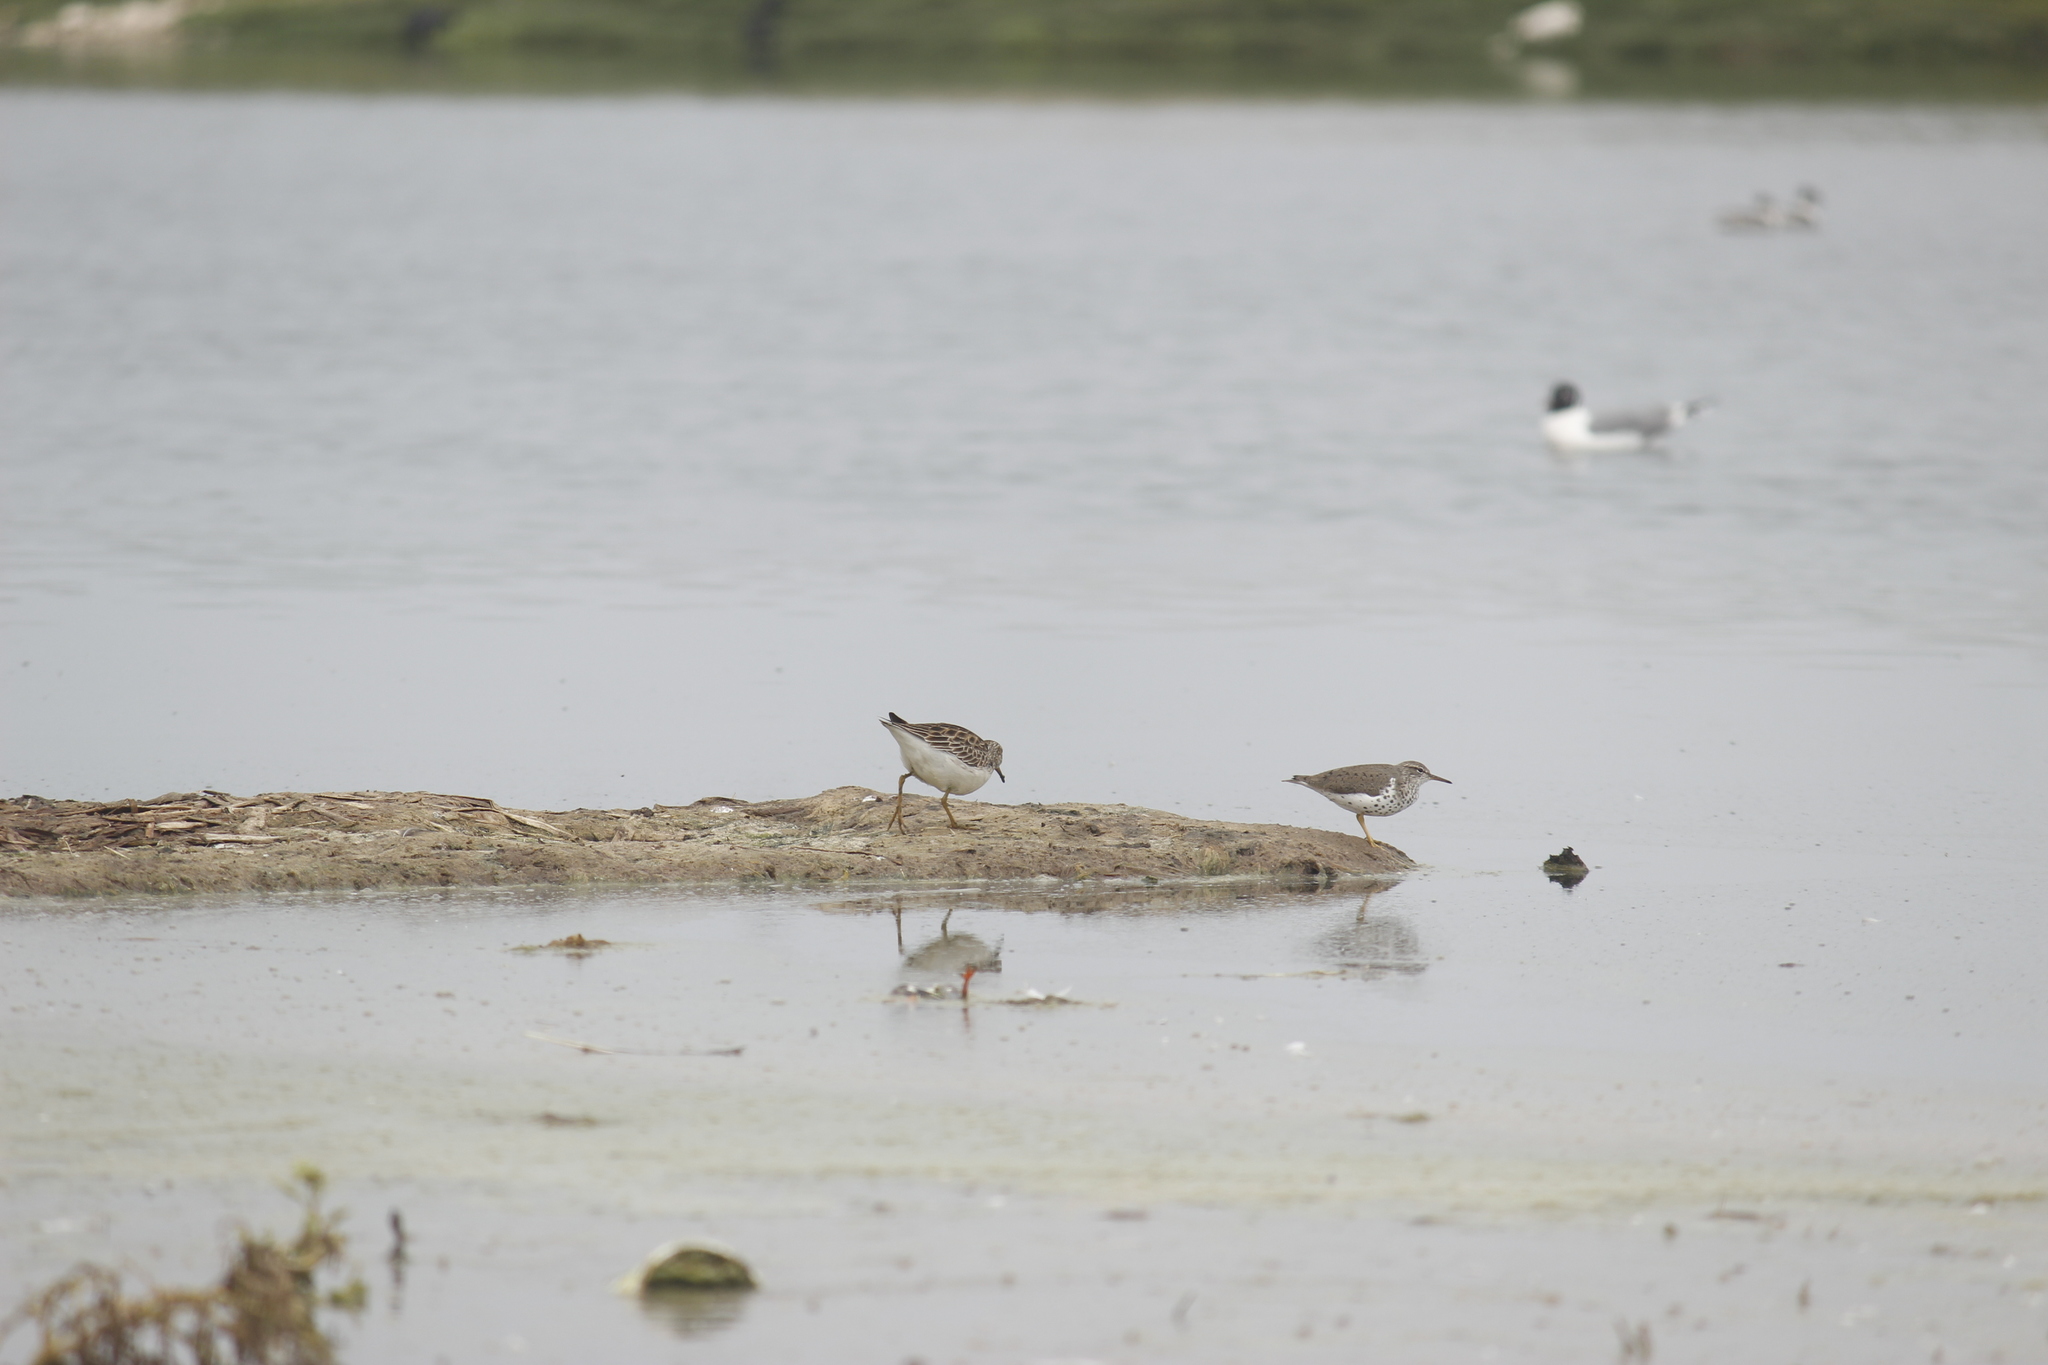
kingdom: Animalia
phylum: Chordata
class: Aves
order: Charadriiformes
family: Scolopacidae
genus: Actitis
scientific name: Actitis macularius
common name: Spotted sandpiper
